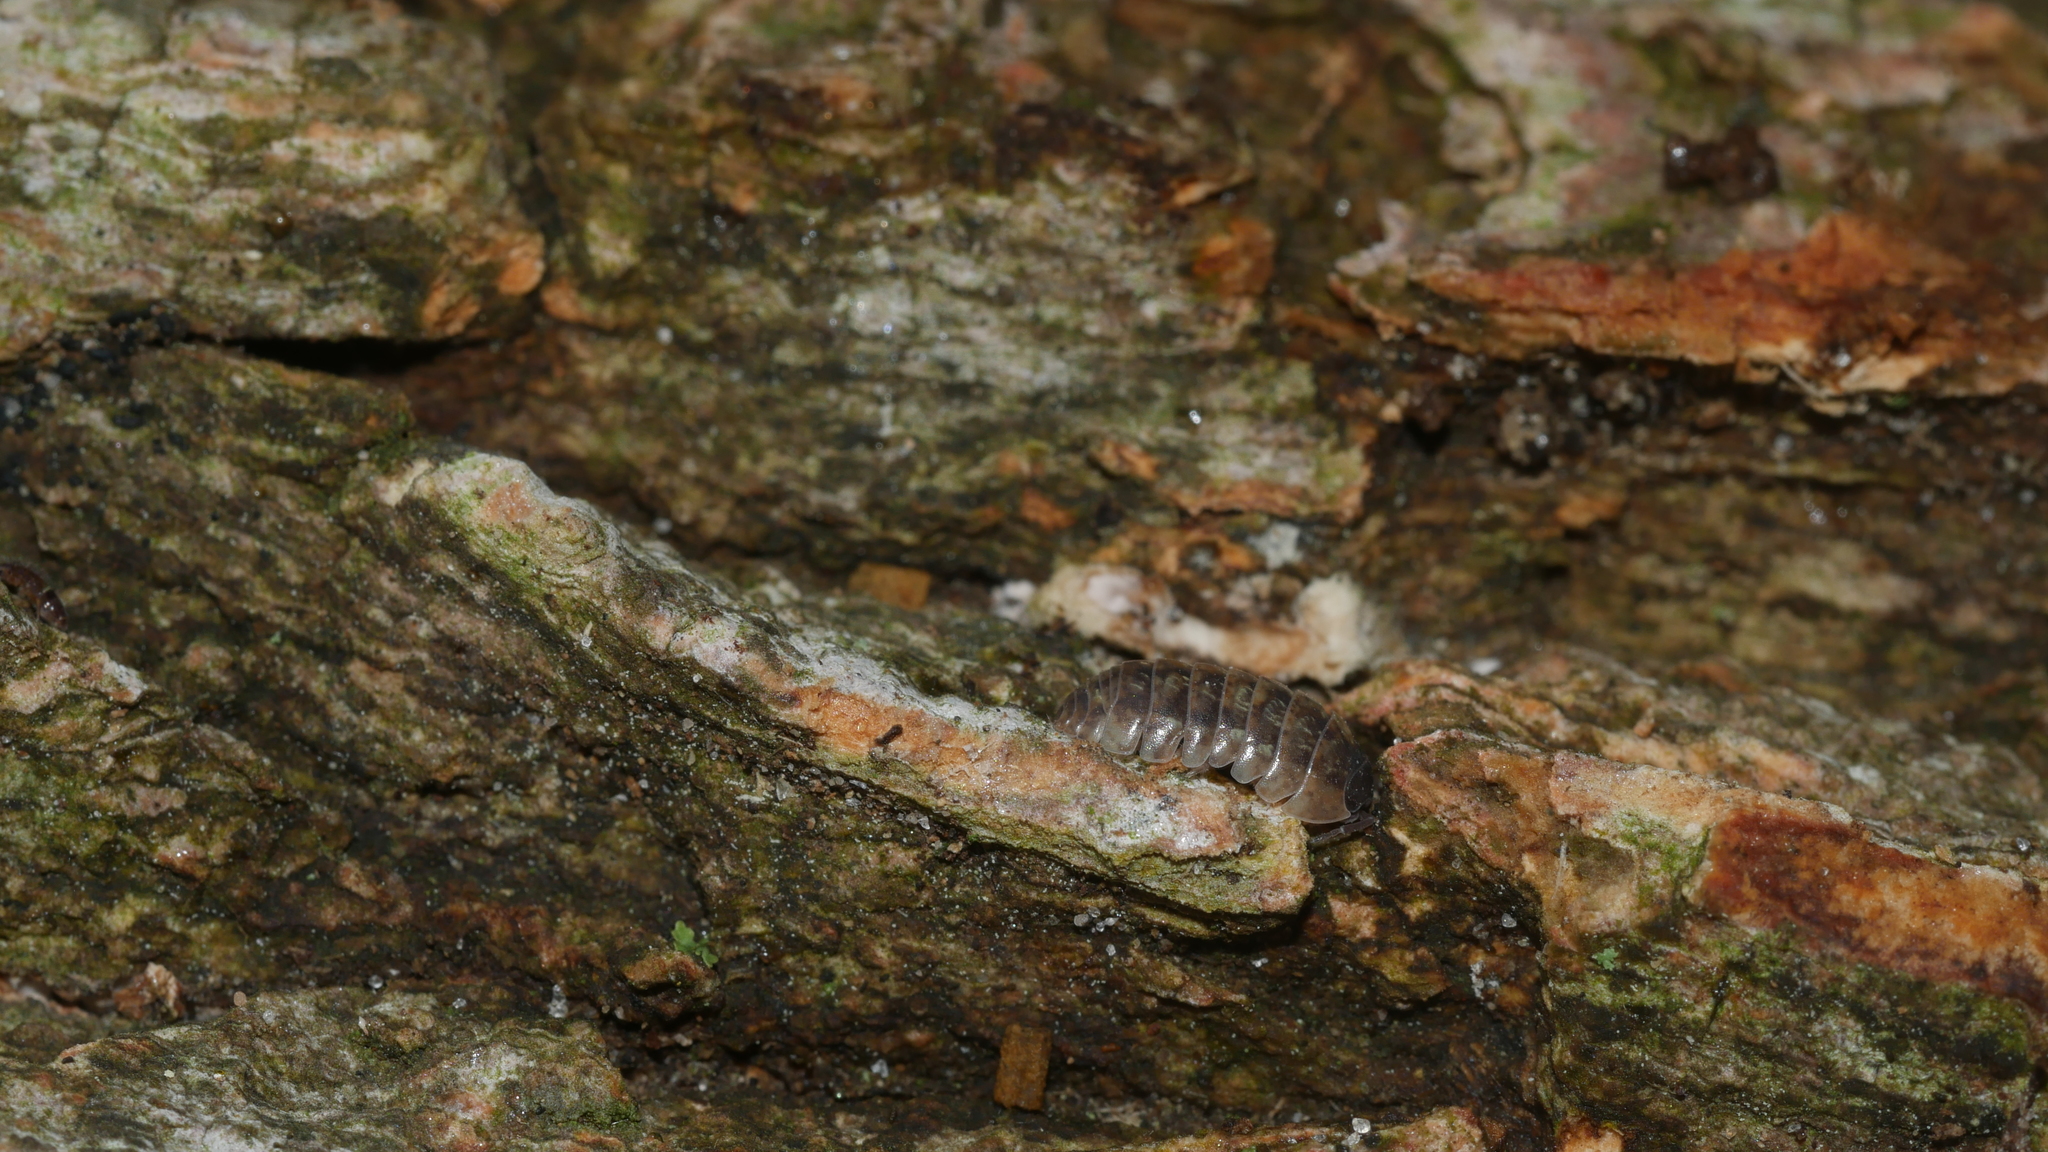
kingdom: Animalia
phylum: Arthropoda
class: Malacostraca
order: Isopoda
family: Armadillidiidae
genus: Armadillidium
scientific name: Armadillidium vulgare
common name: Common pill woodlouse
